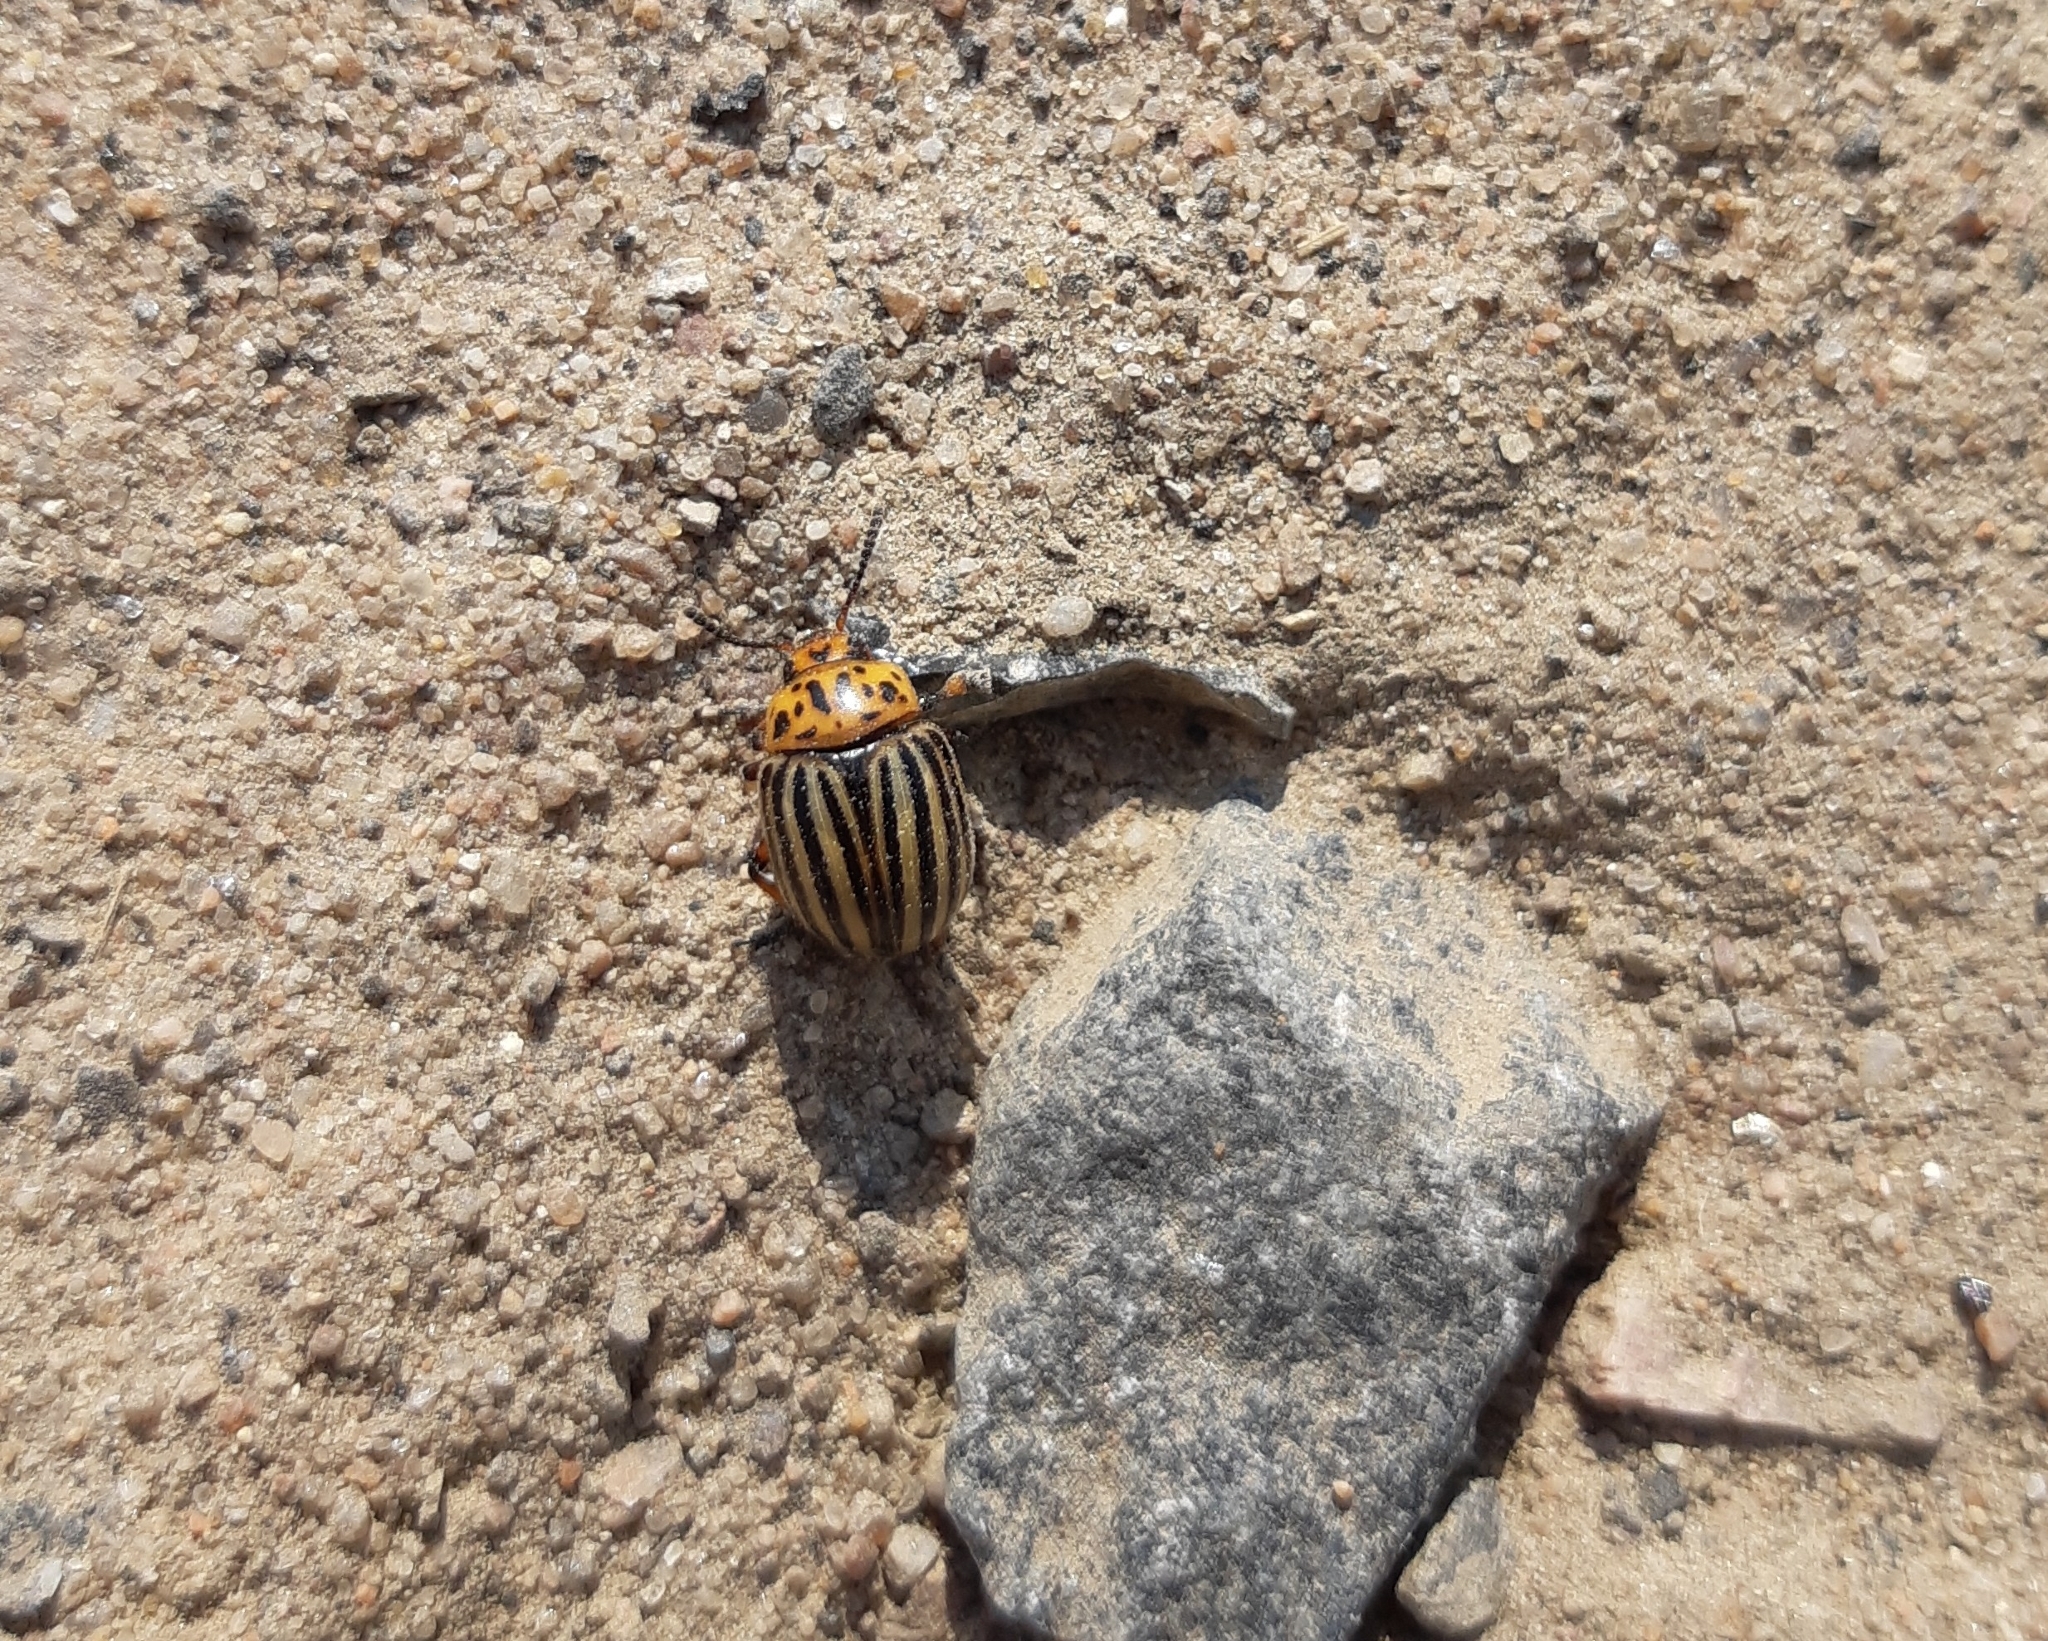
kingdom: Animalia
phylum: Arthropoda
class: Insecta
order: Coleoptera
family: Chrysomelidae
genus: Leptinotarsa
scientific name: Leptinotarsa decemlineata
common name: Colorado potato beetle
